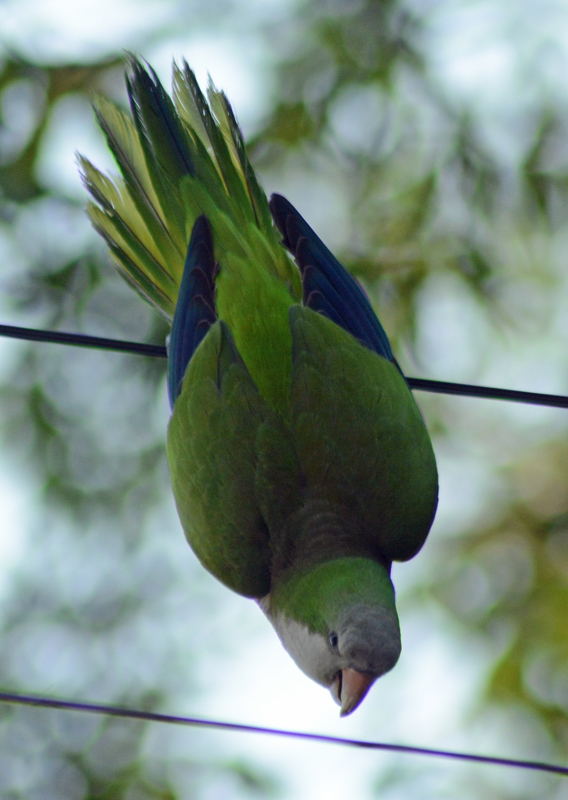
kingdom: Animalia
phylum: Chordata
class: Aves
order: Psittaciformes
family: Psittacidae
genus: Myiopsitta
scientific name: Myiopsitta monachus
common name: Monk parakeet
